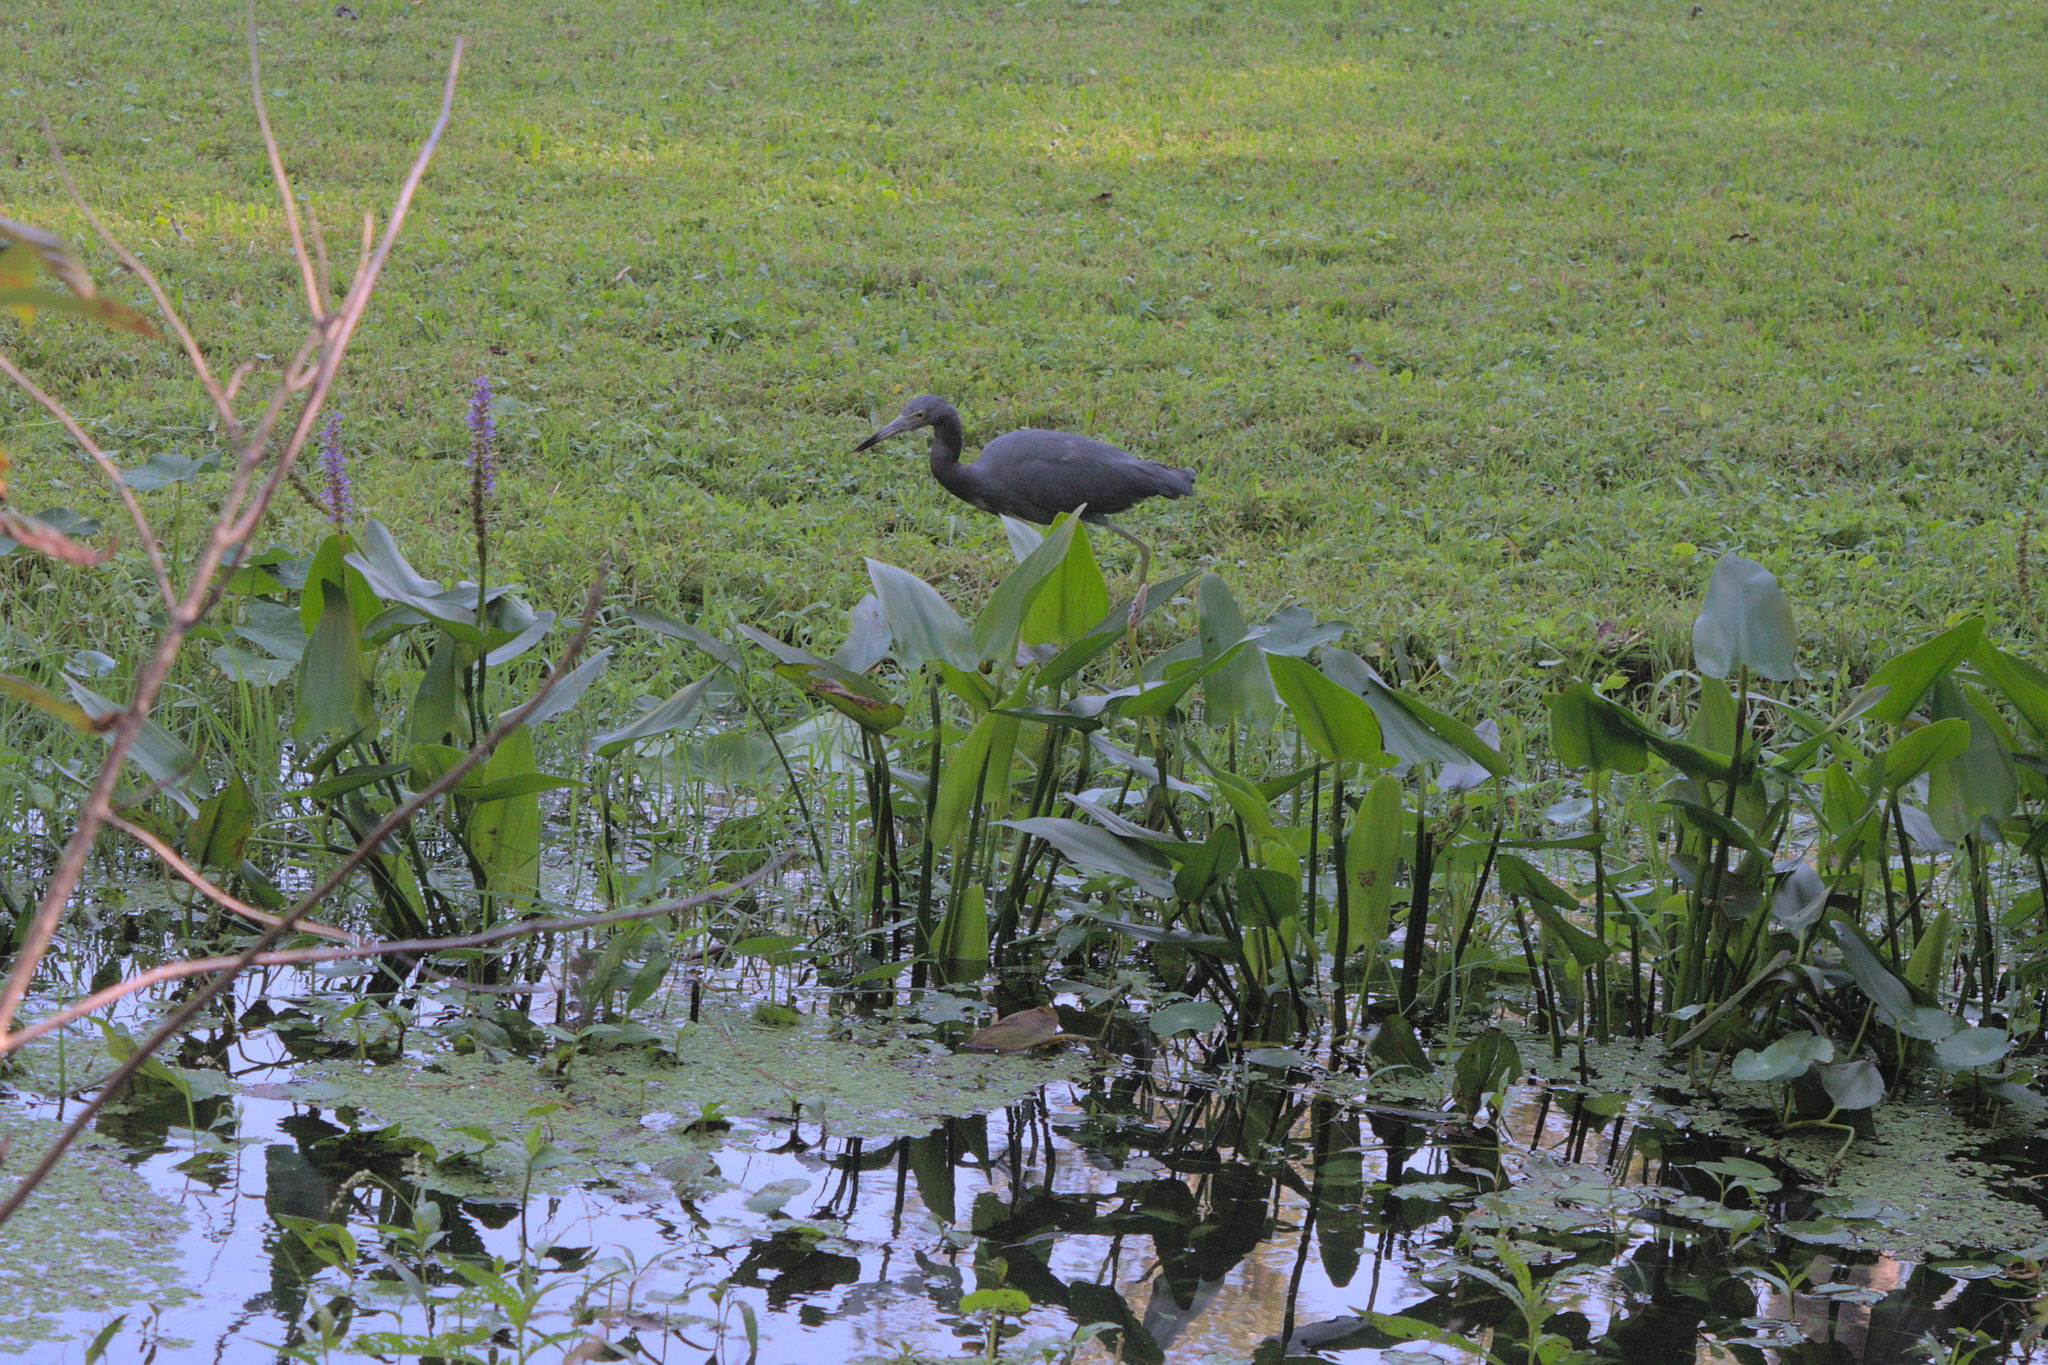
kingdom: Animalia
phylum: Chordata
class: Aves
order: Pelecaniformes
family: Ardeidae
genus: Egretta
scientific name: Egretta caerulea
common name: Little blue heron
